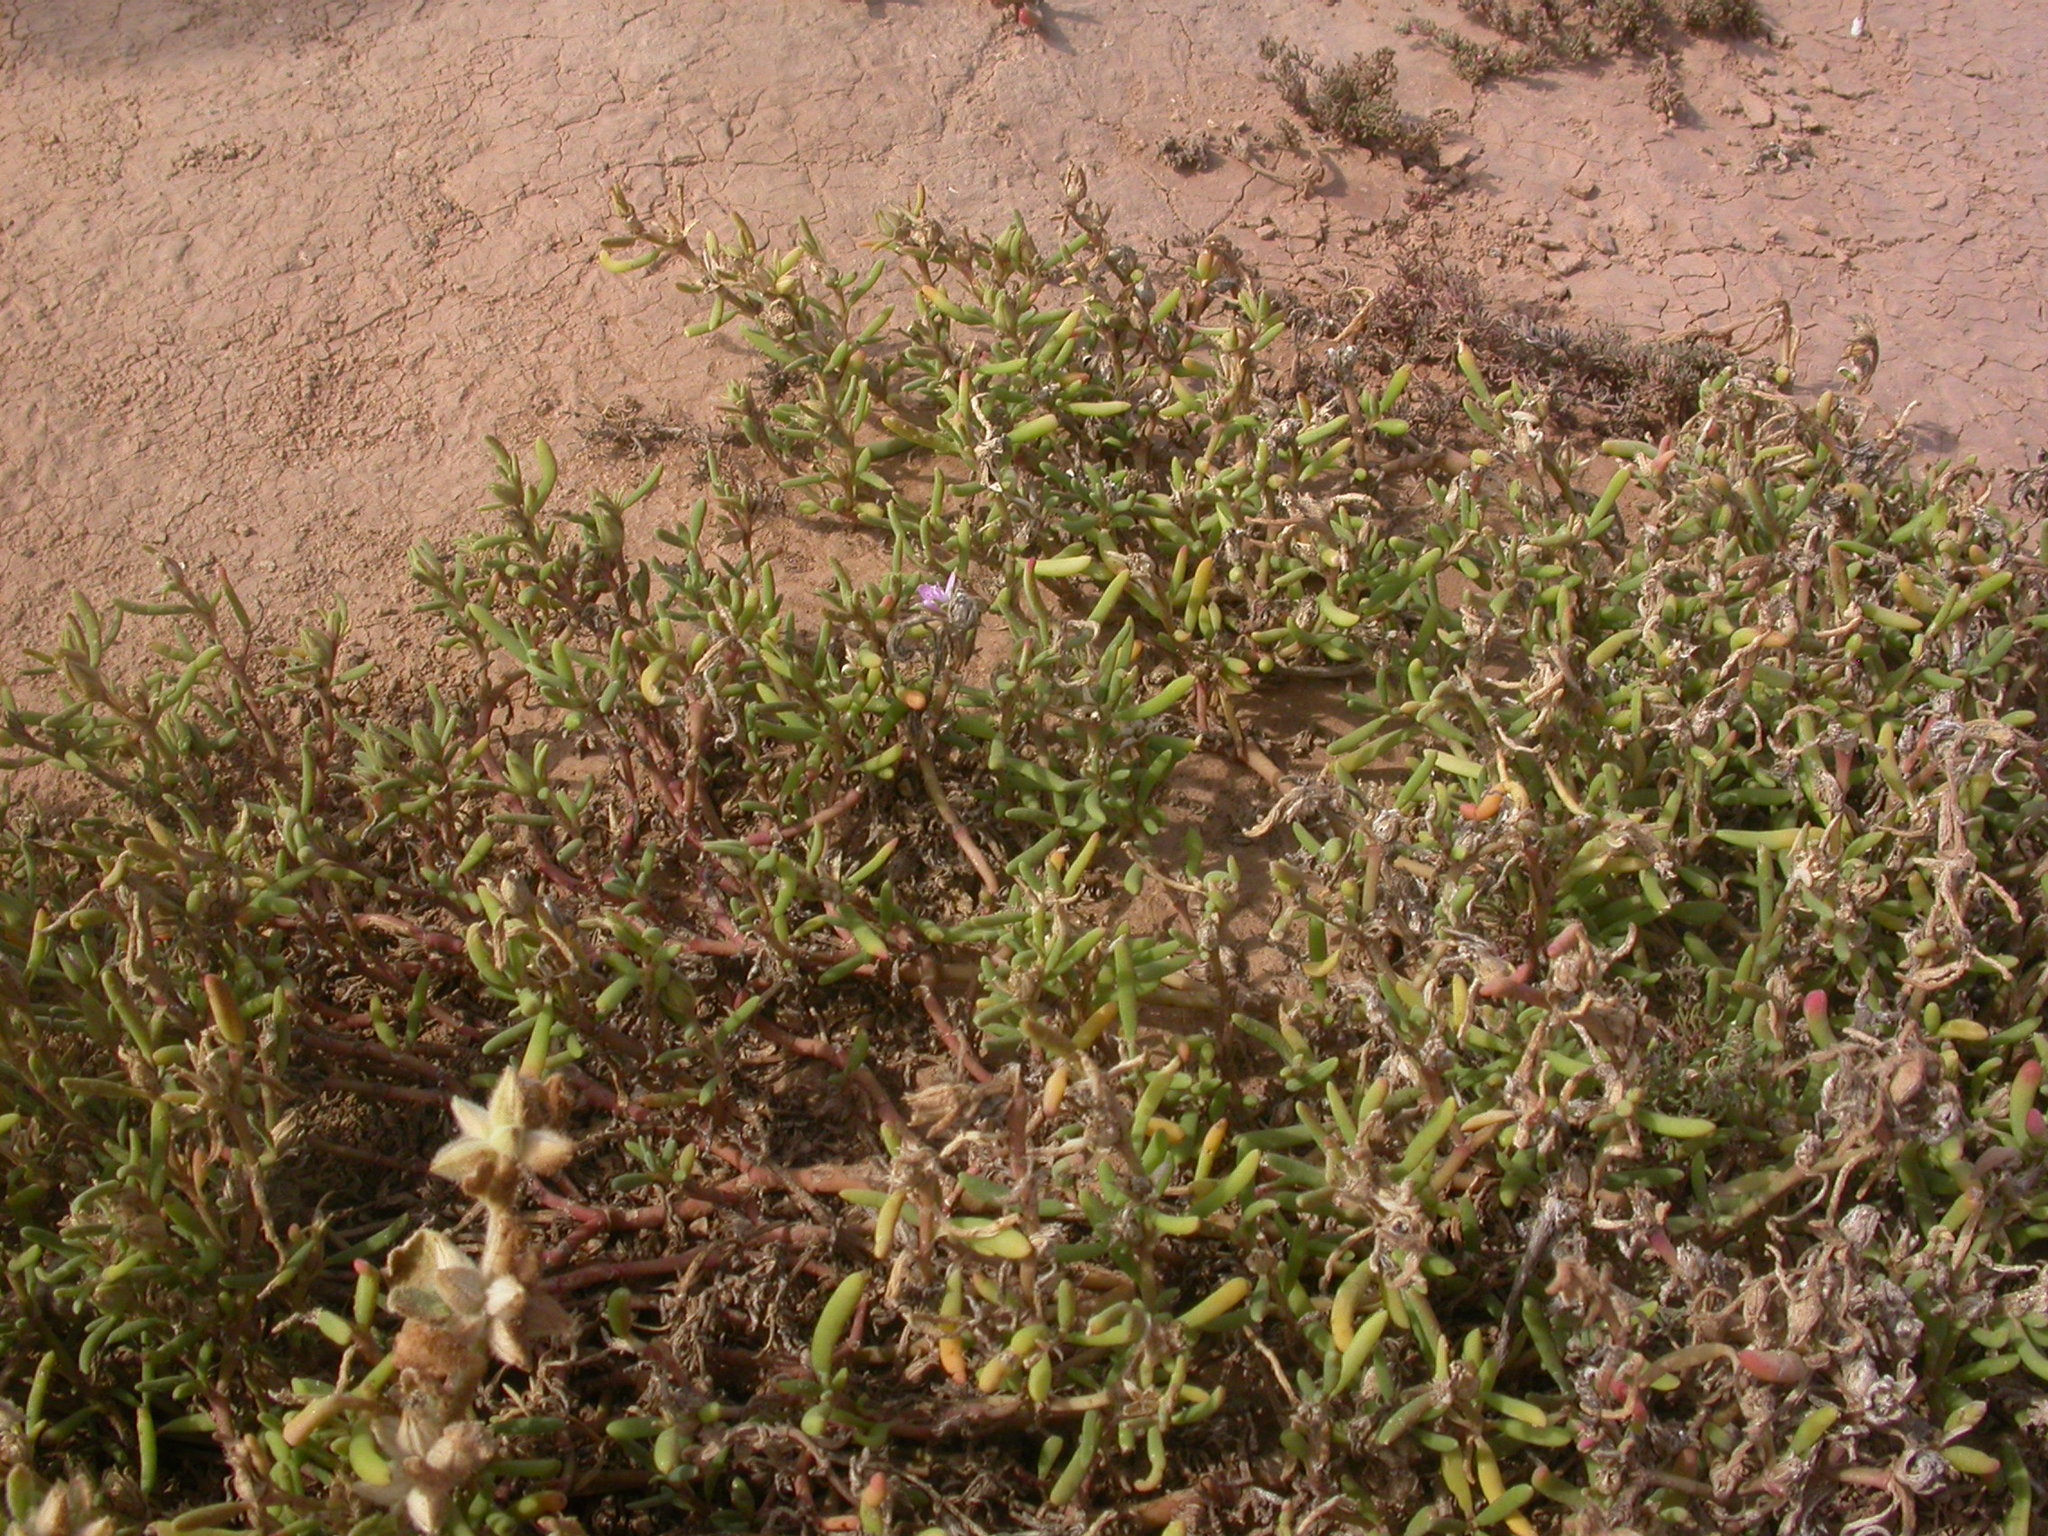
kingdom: Plantae
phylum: Tracheophyta
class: Magnoliopsida
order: Caryophyllales
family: Aizoaceae
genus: Sesuvium
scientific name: Sesuvium portulacastrum
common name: Sea-purslane
